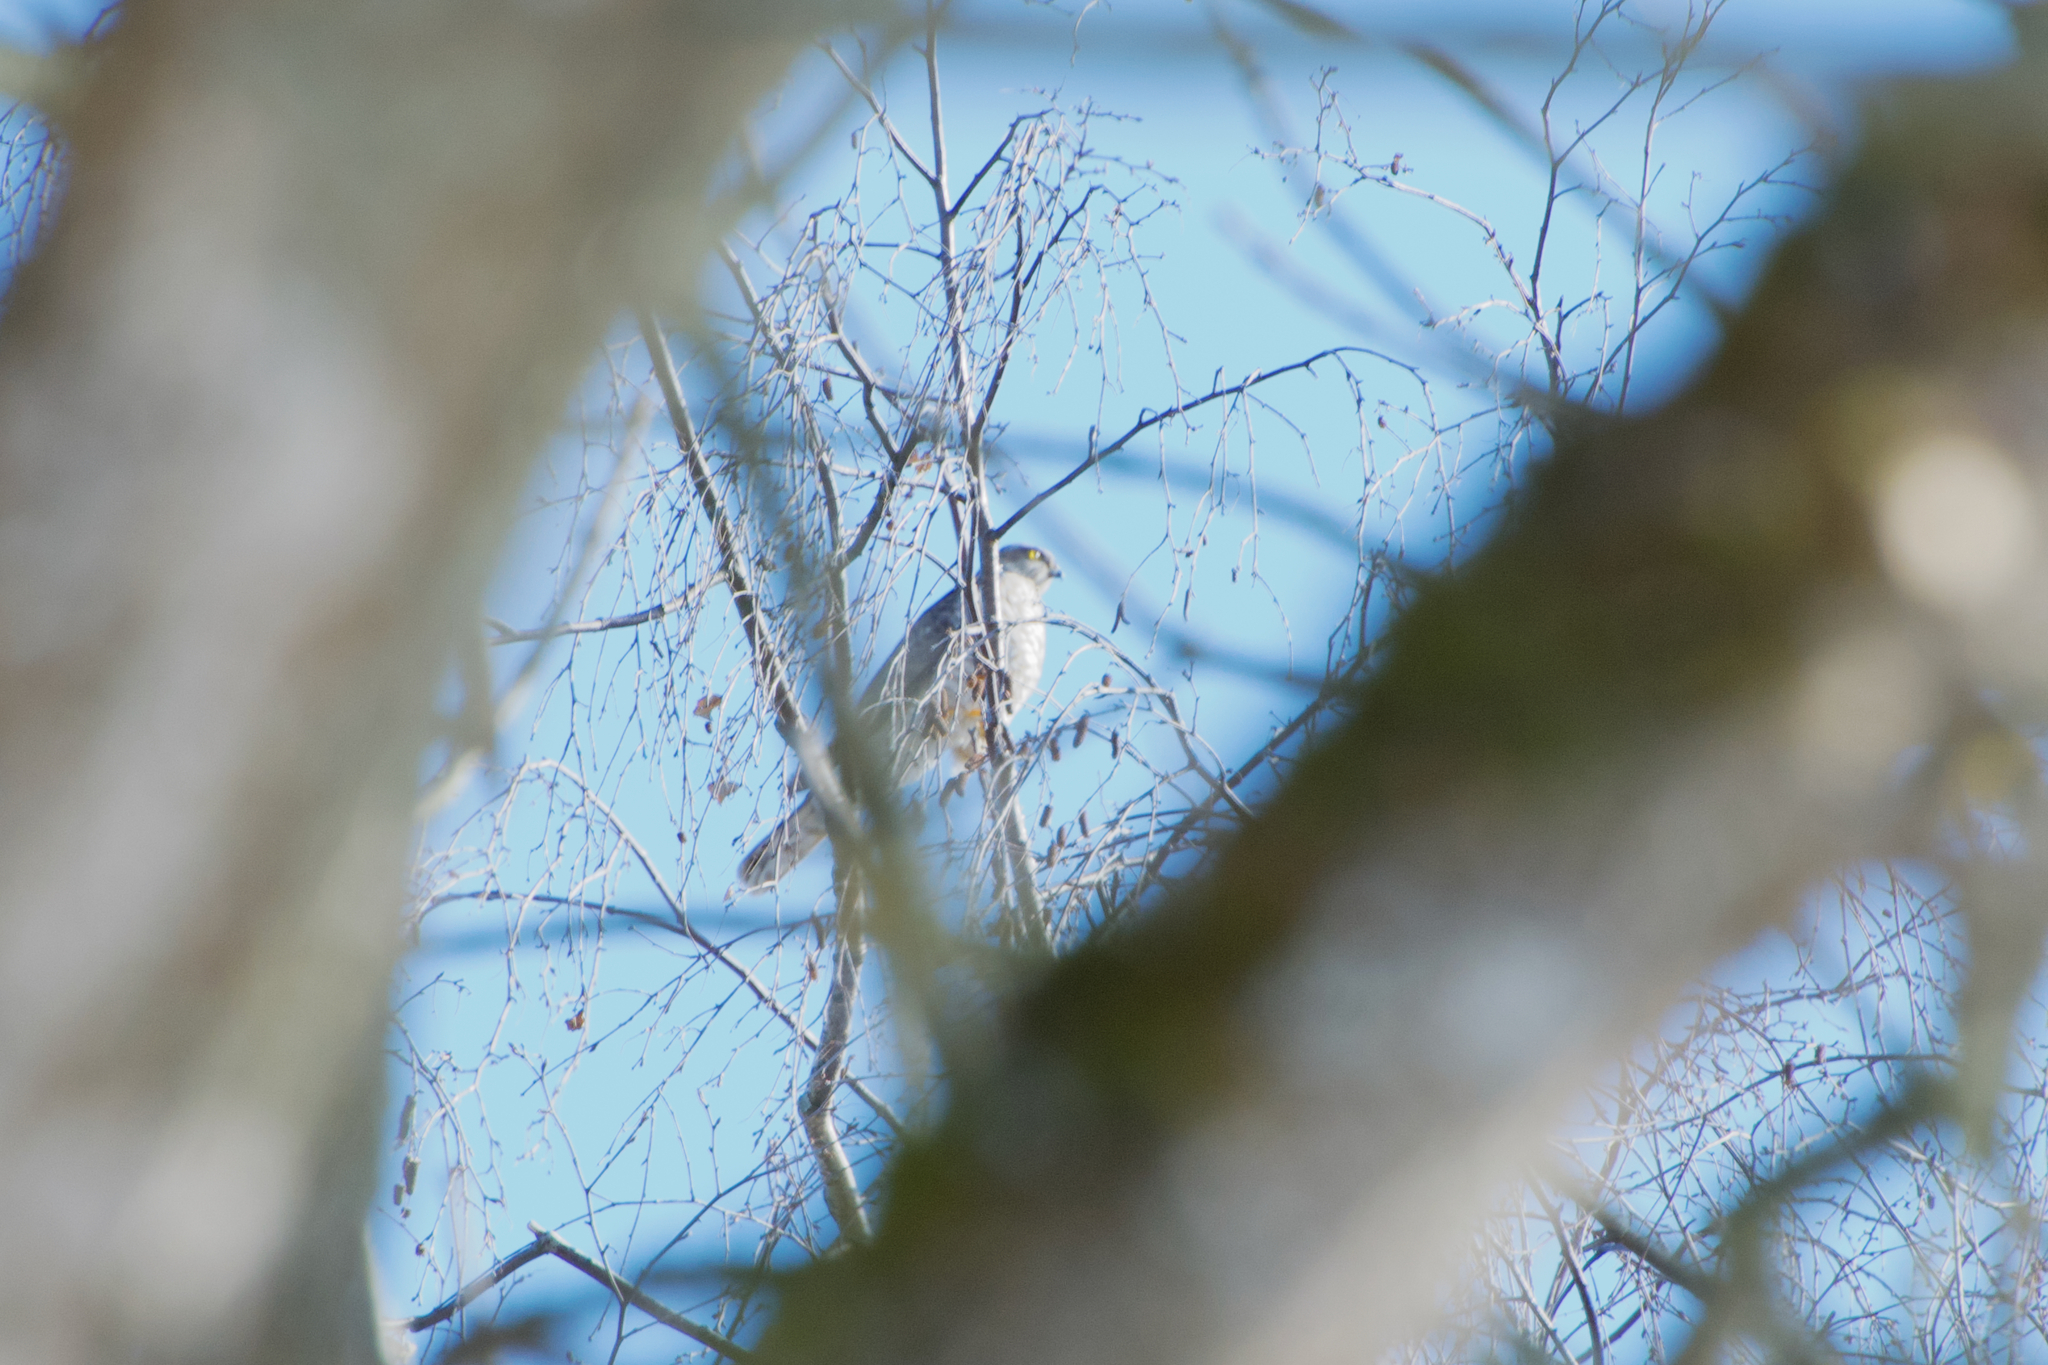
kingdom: Animalia
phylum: Chordata
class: Aves
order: Accipitriformes
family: Accipitridae
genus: Accipiter
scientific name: Accipiter nisus
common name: Eurasian sparrowhawk
